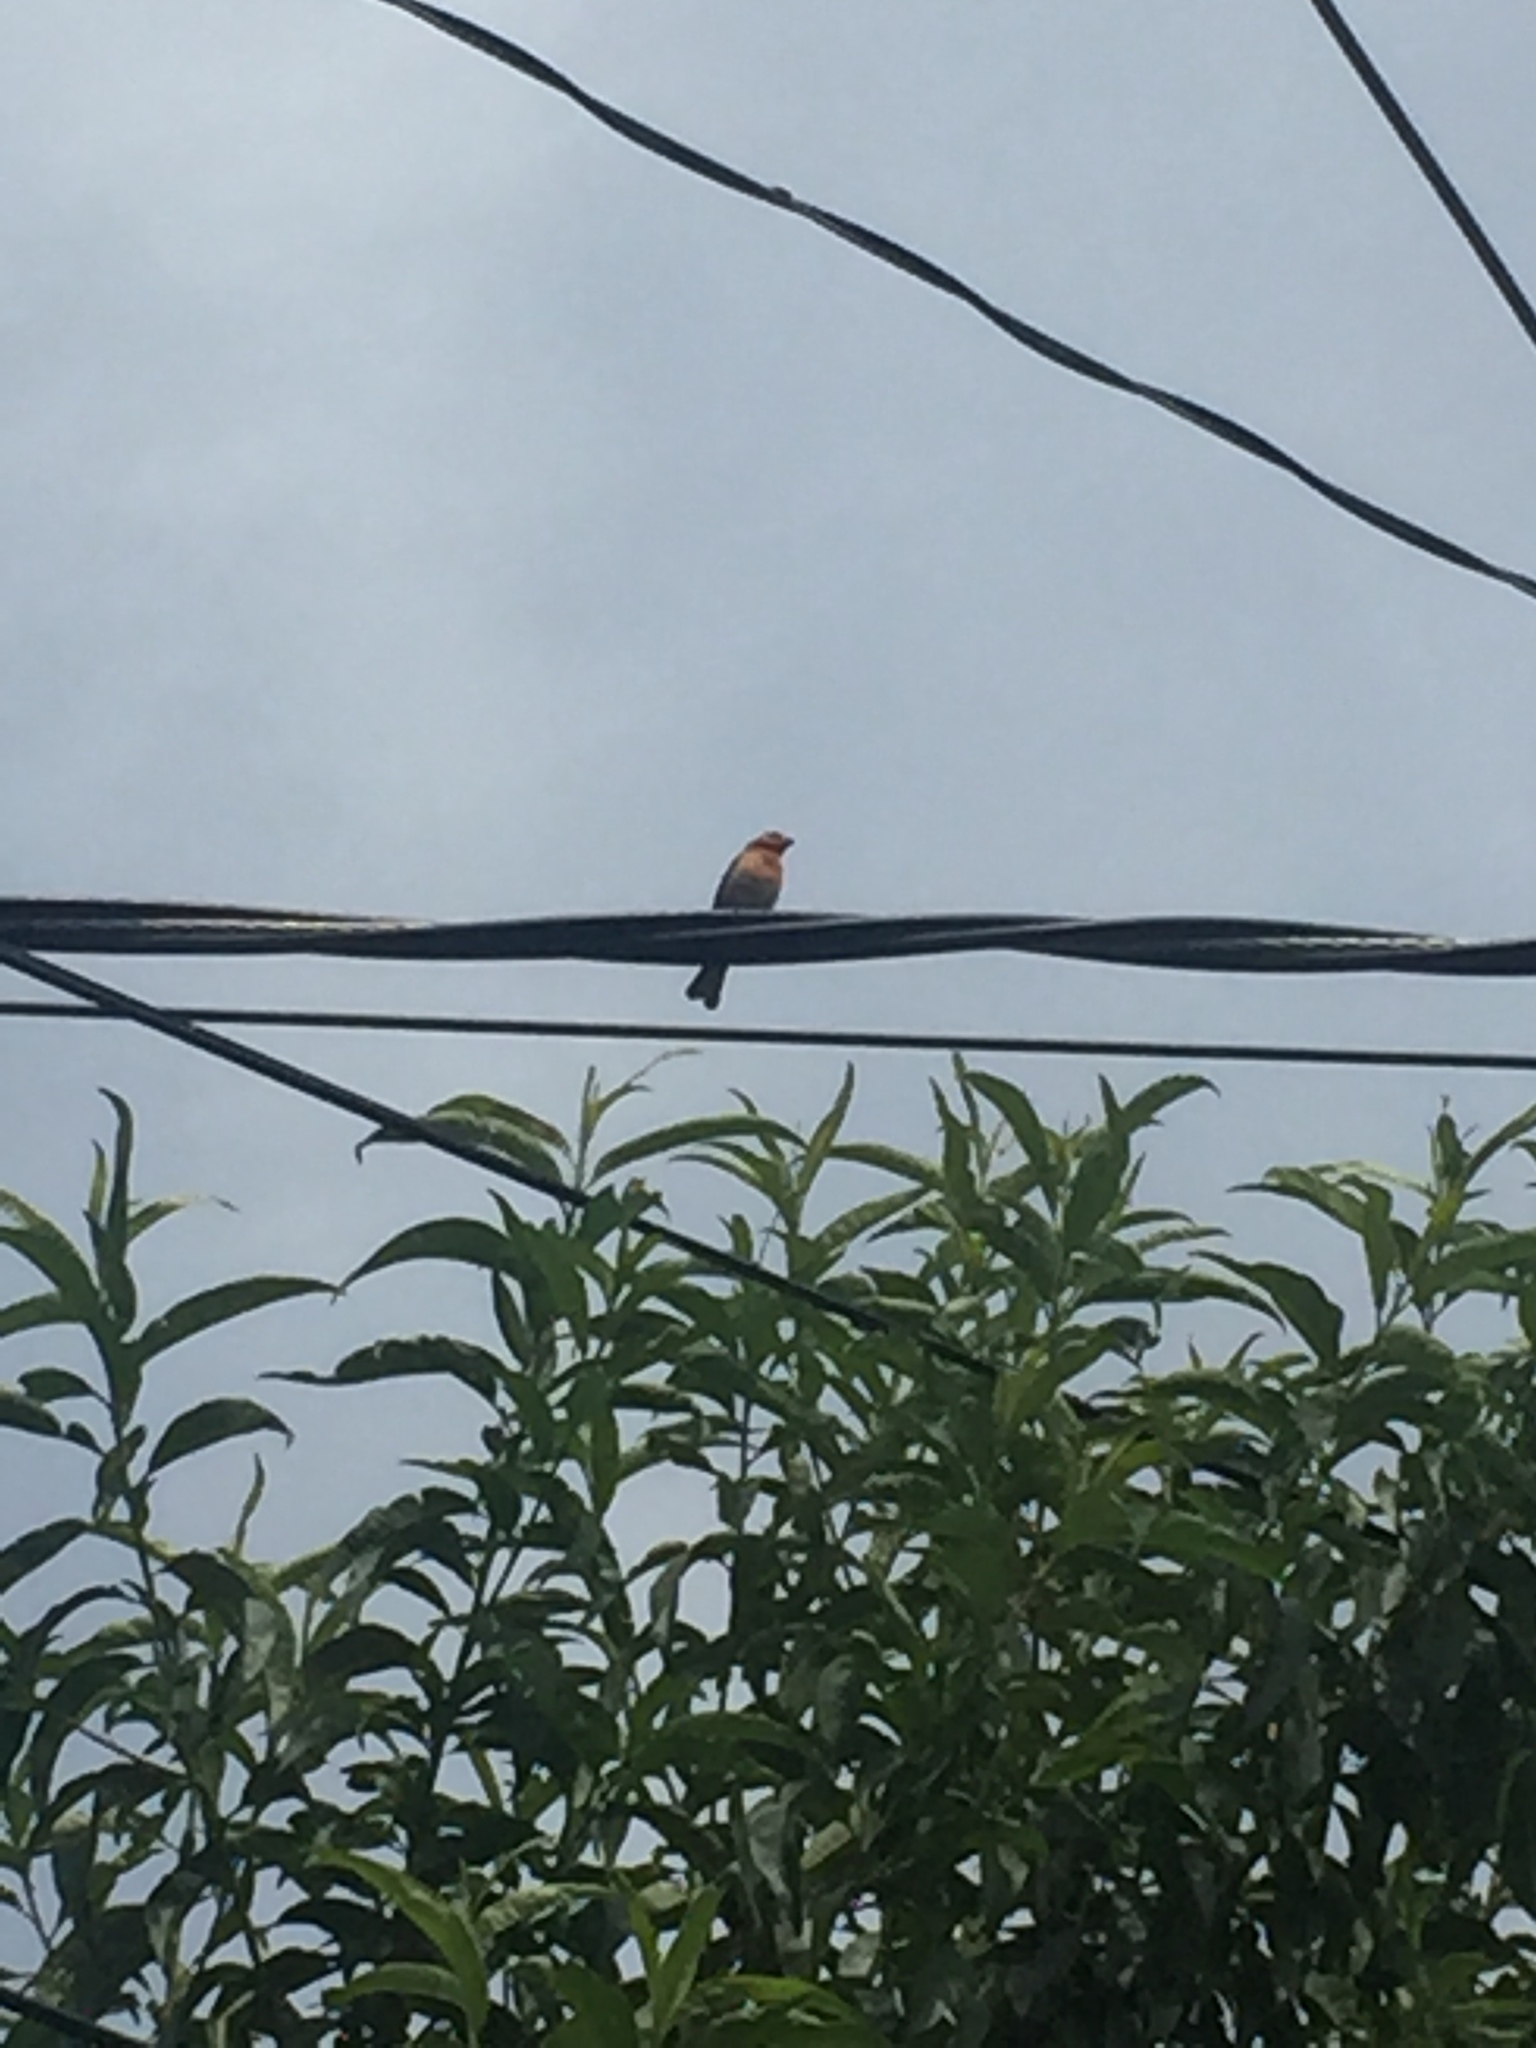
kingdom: Animalia
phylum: Chordata
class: Aves
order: Passeriformes
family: Fringillidae
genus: Haemorhous
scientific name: Haemorhous mexicanus
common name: House finch
